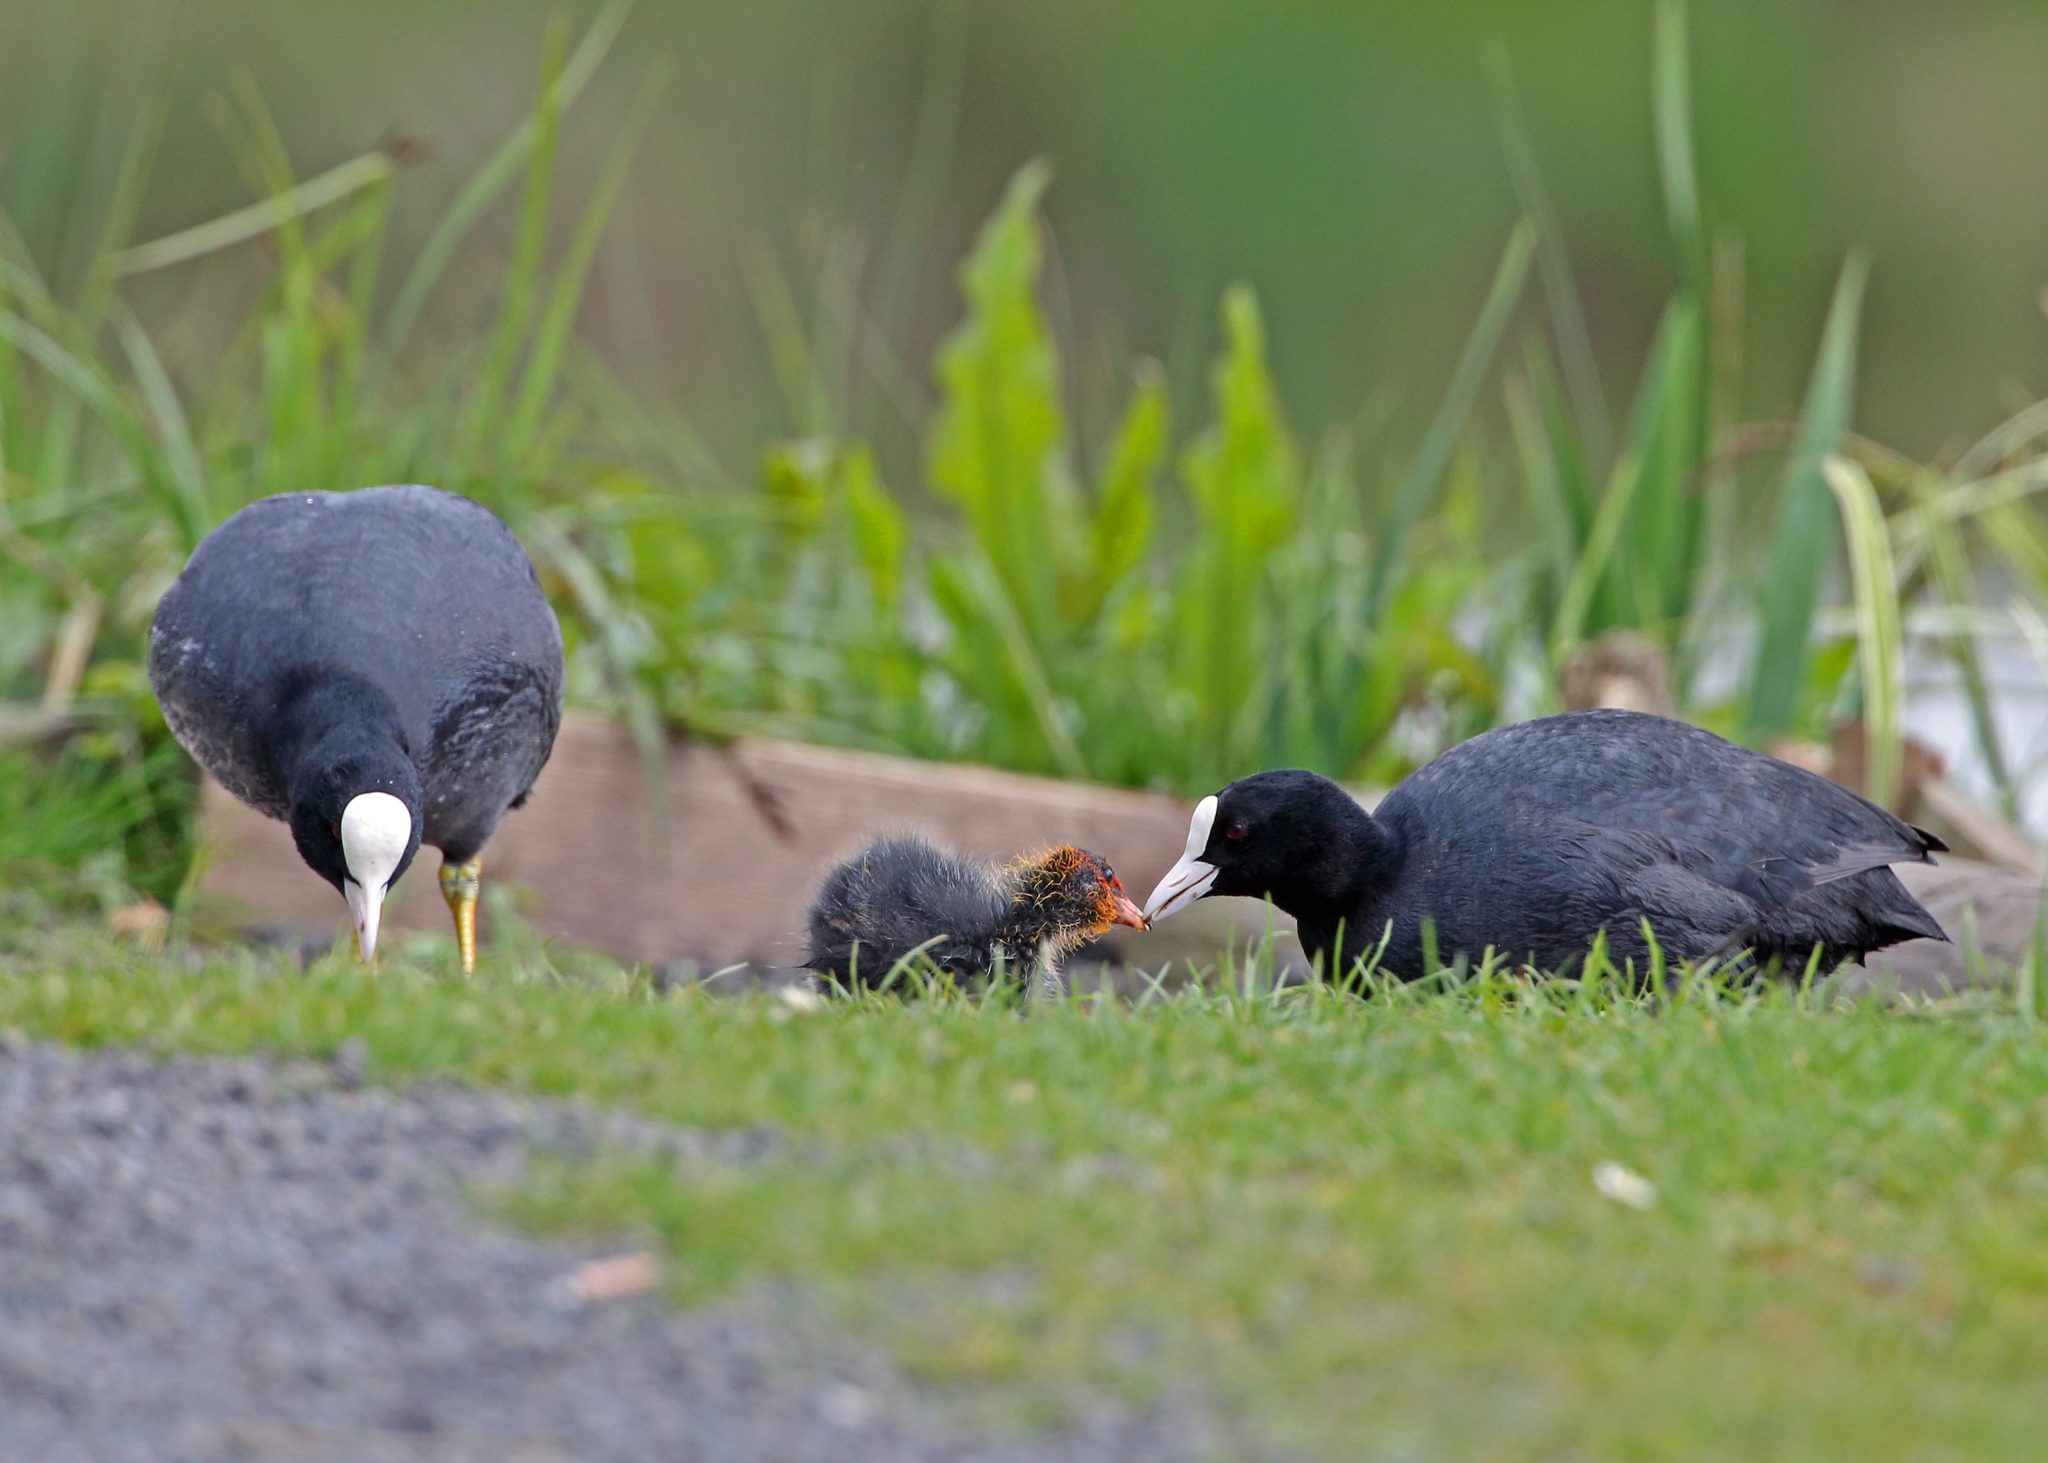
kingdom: Animalia
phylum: Chordata
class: Aves
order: Gruiformes
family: Rallidae
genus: Fulica
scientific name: Fulica atra
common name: Eurasian coot
